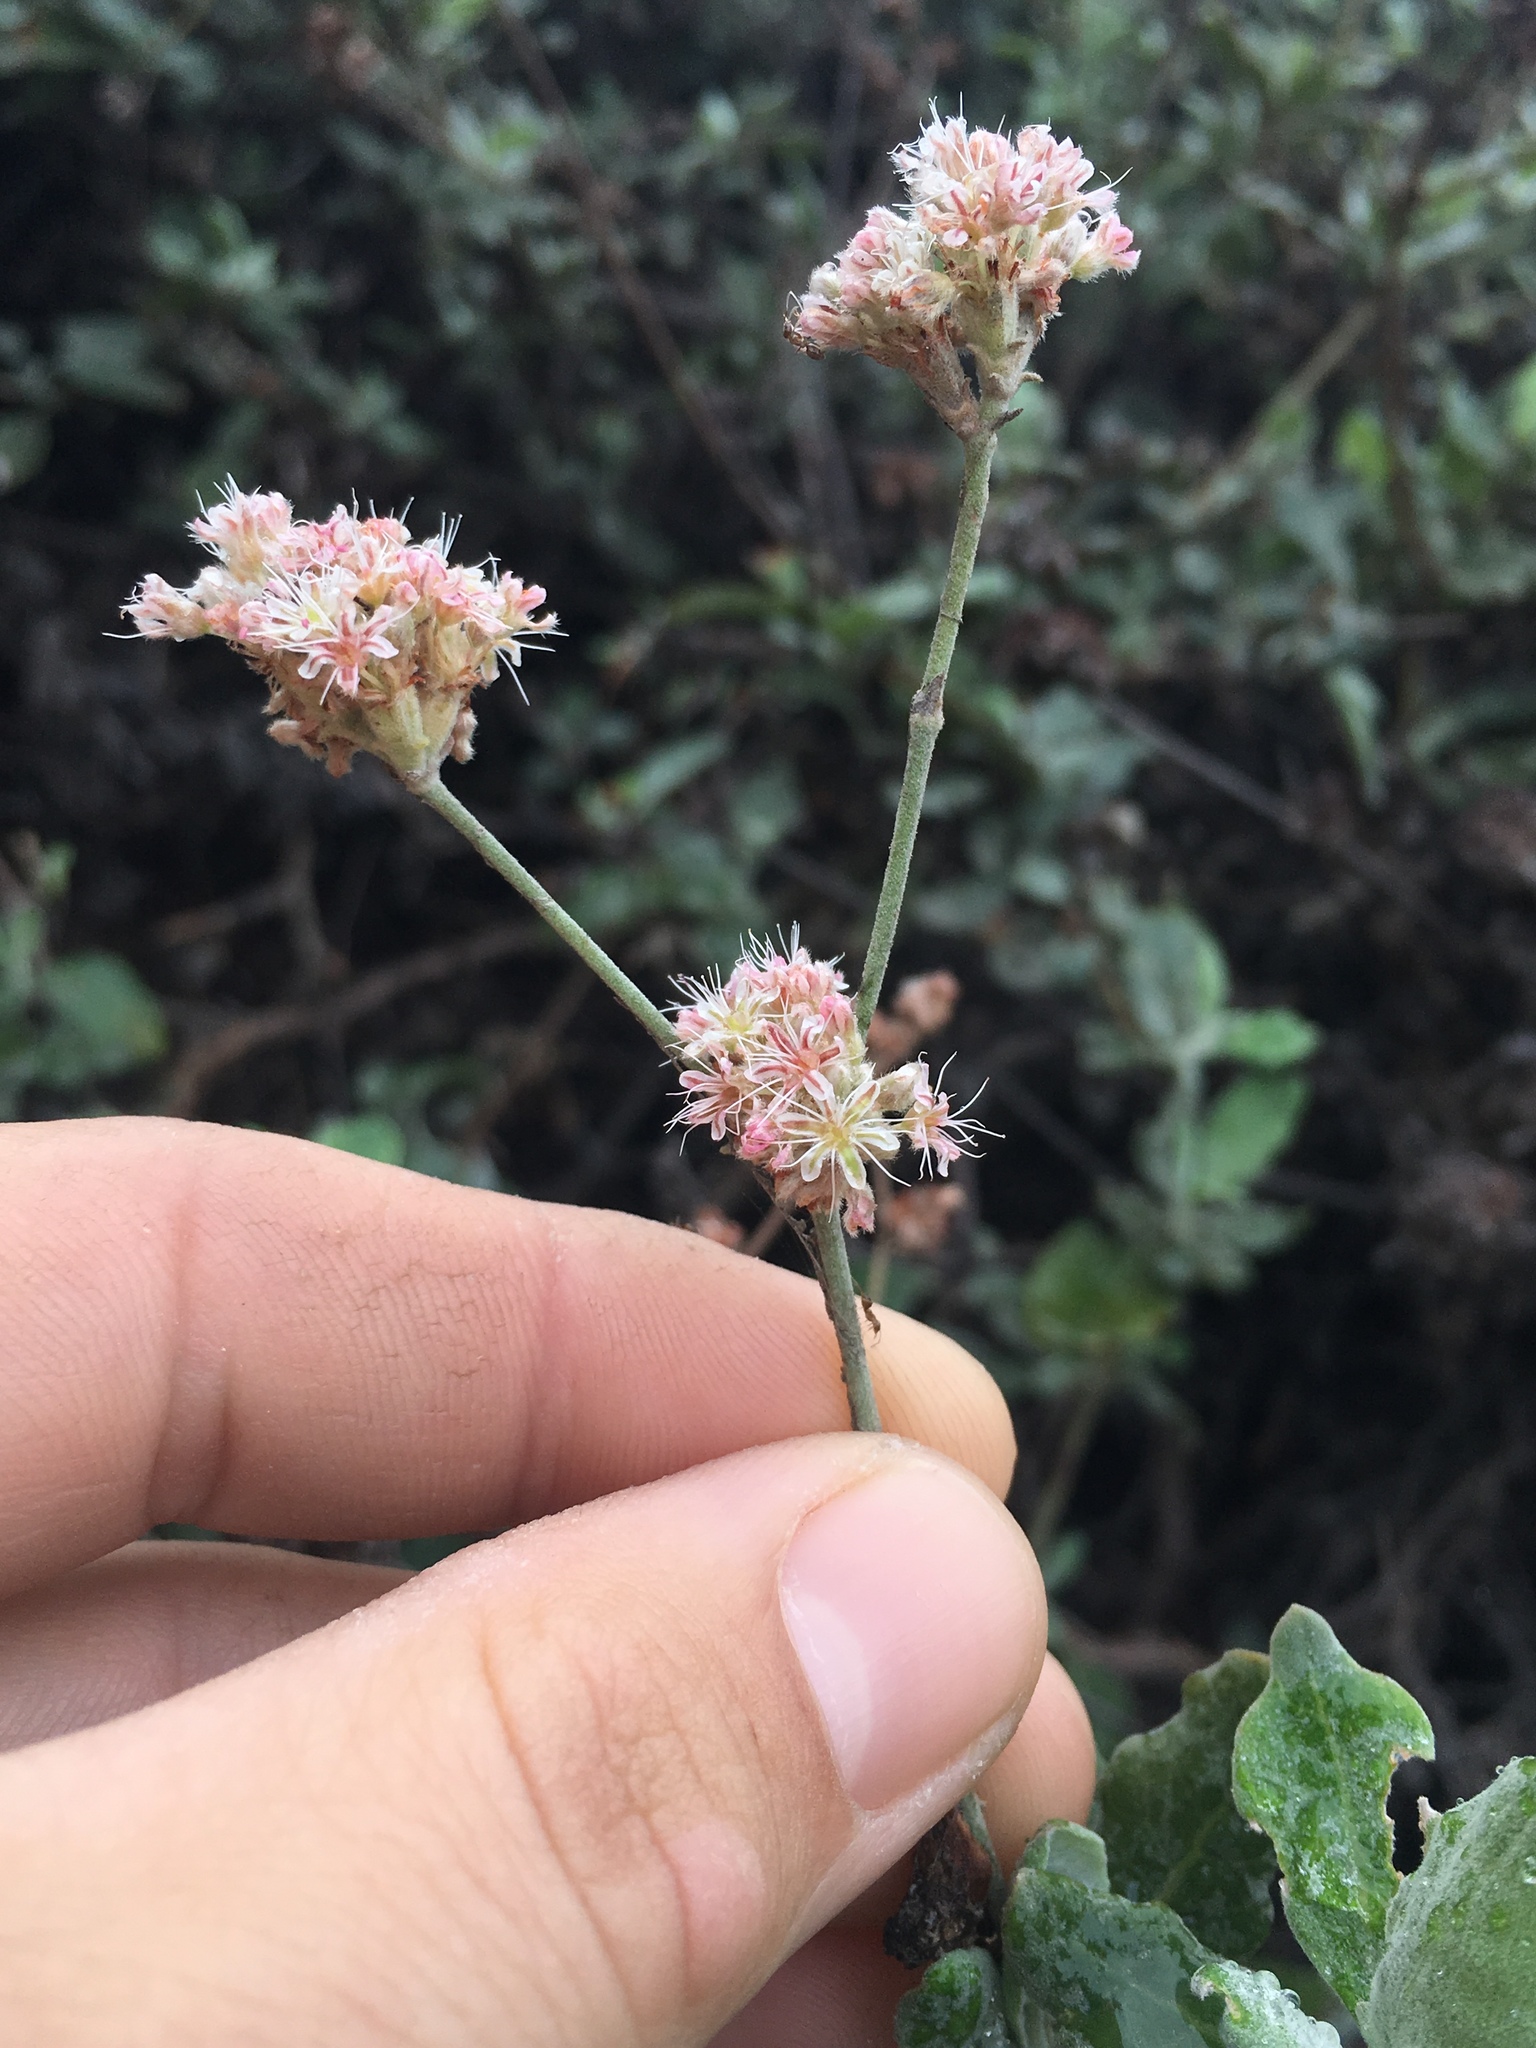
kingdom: Plantae
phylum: Tracheophyta
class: Magnoliopsida
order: Caryophyllales
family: Polygonaceae
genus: Eriogonum
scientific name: Eriogonum cinereum
